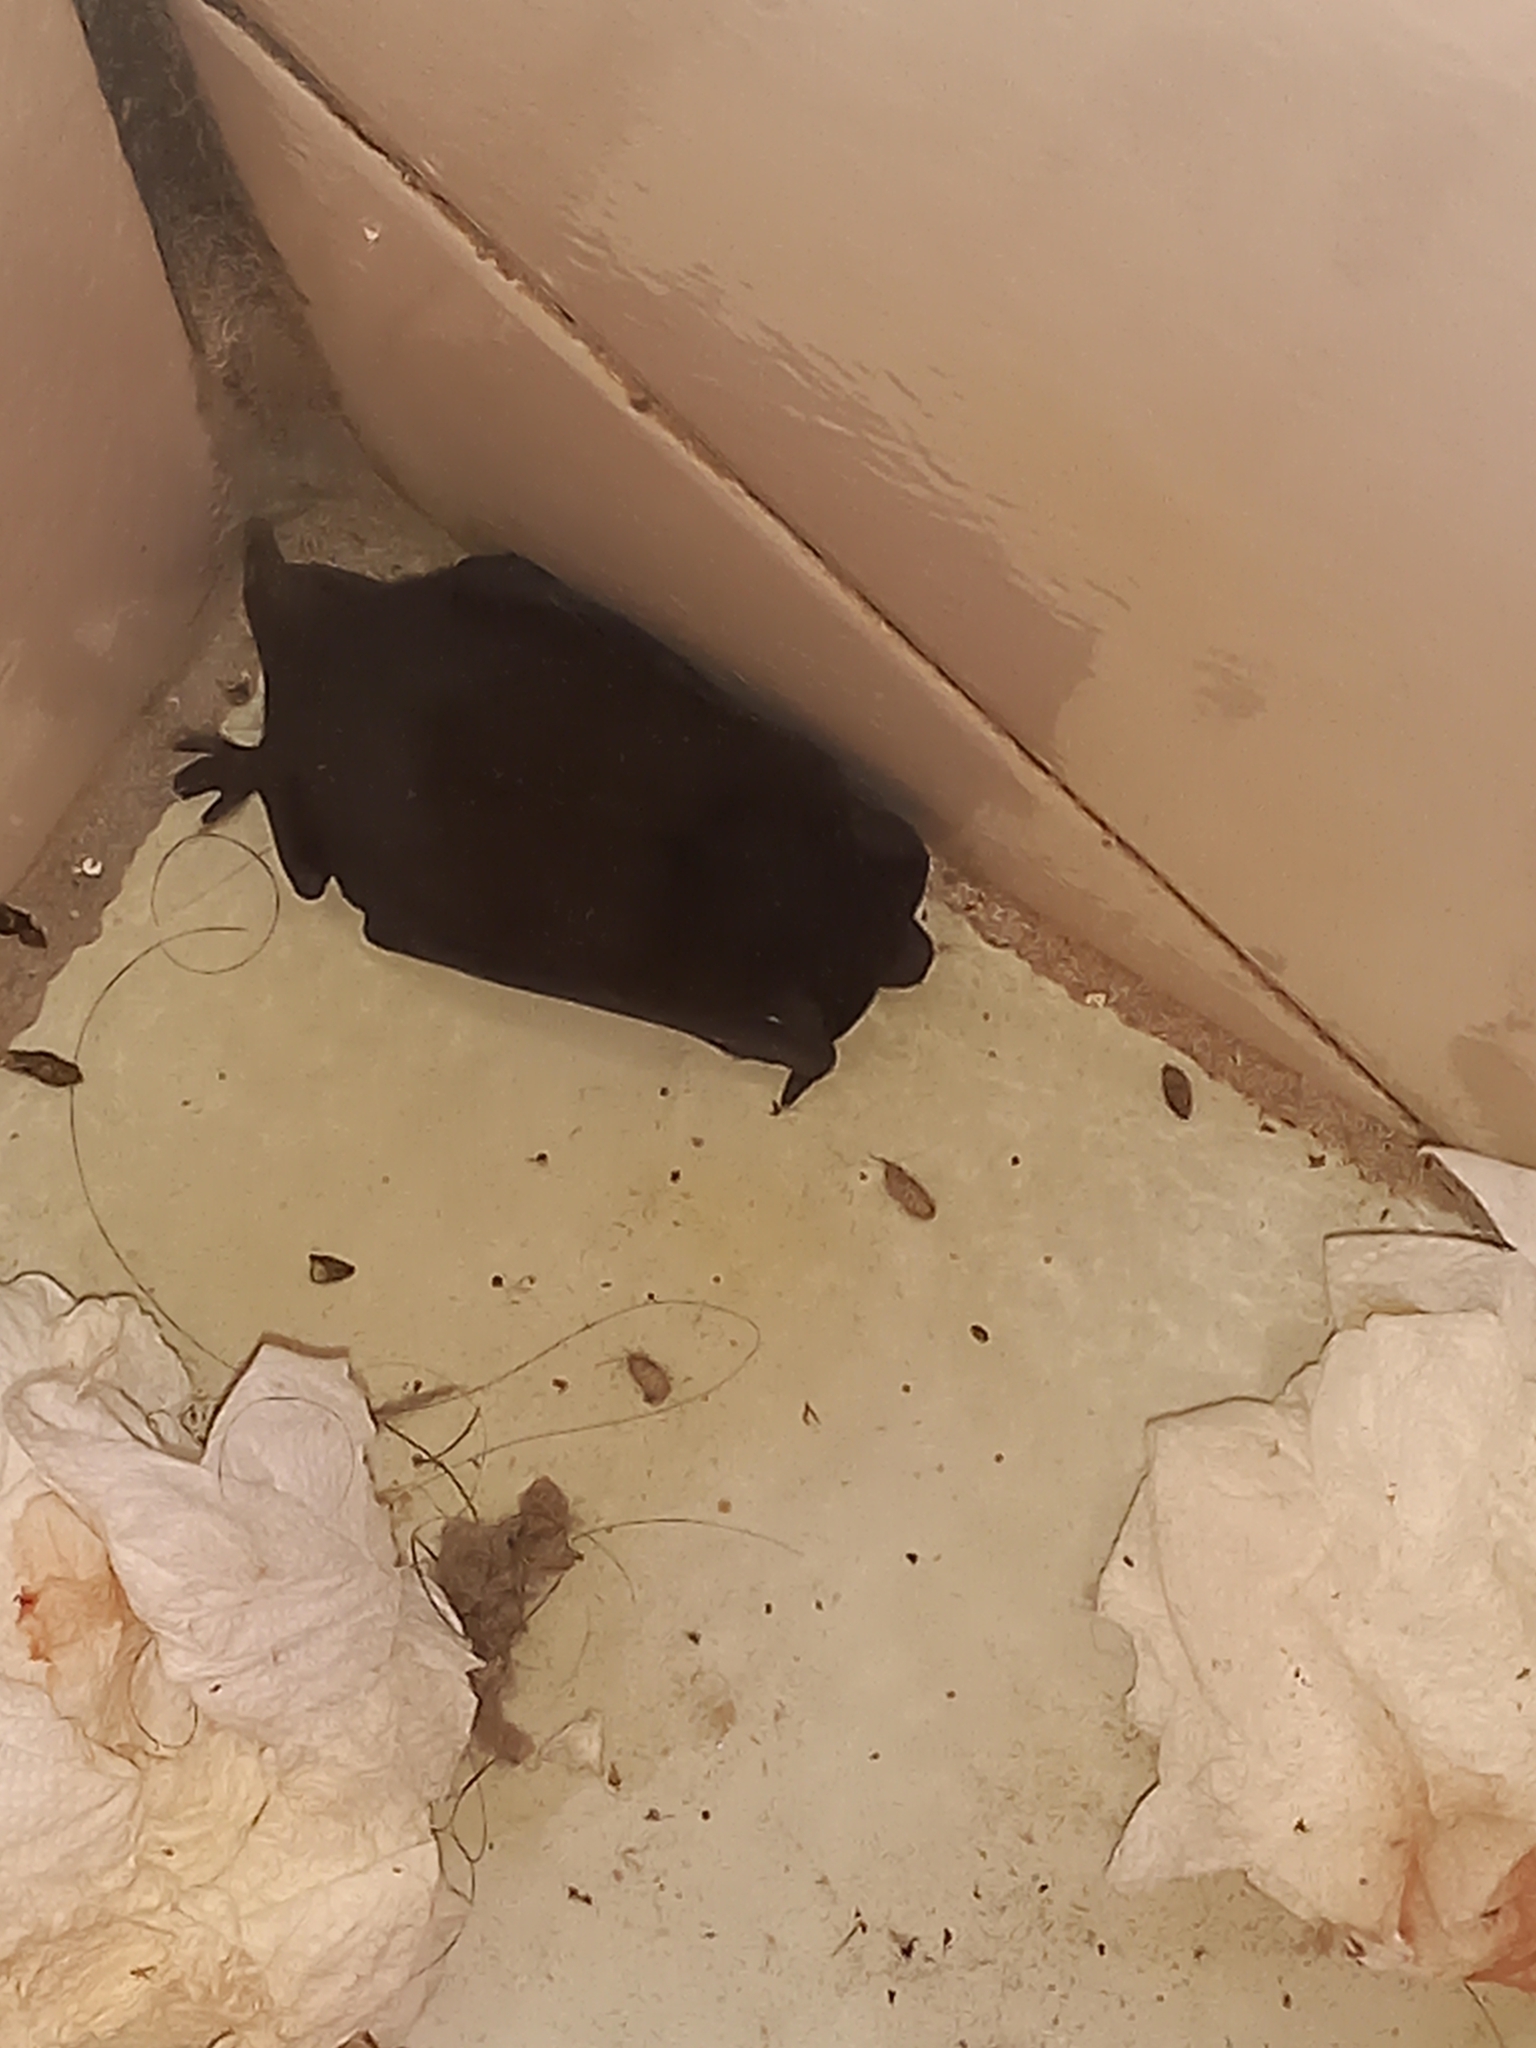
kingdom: Animalia
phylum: Chordata
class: Mammalia
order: Chiroptera
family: Molossidae
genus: Molossus
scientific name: Molossus molossus
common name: Pallas's mastiff bat
